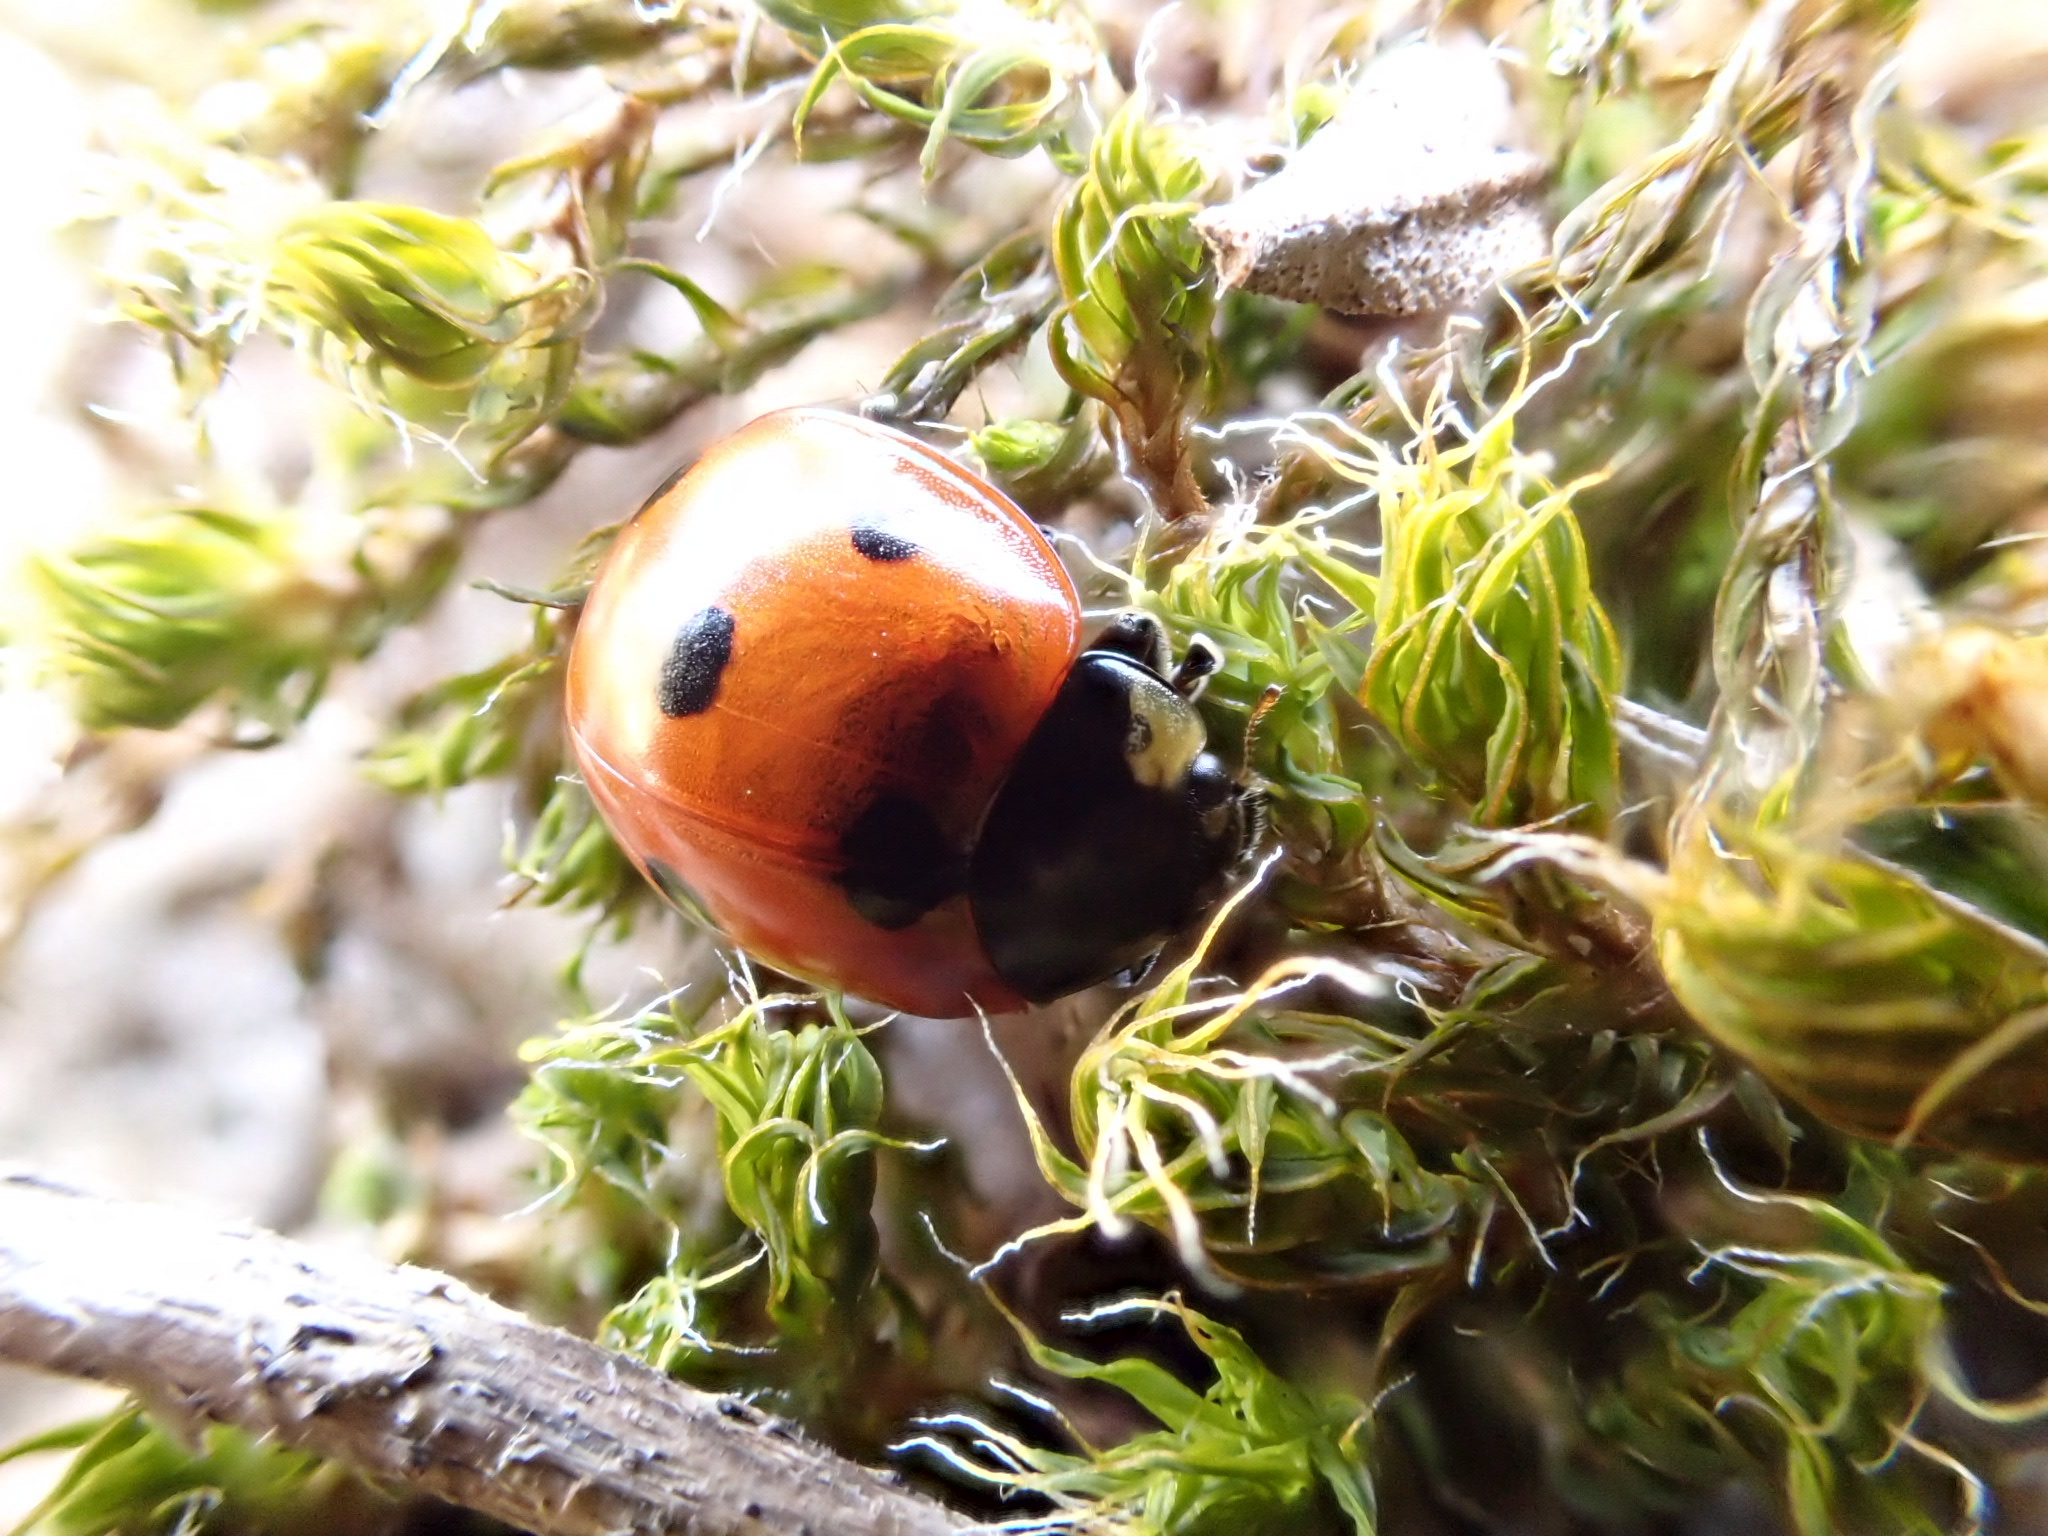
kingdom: Animalia
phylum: Arthropoda
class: Insecta
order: Coleoptera
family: Coccinellidae
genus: Coccinella
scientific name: Coccinella septempunctata
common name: Sevenspotted lady beetle
